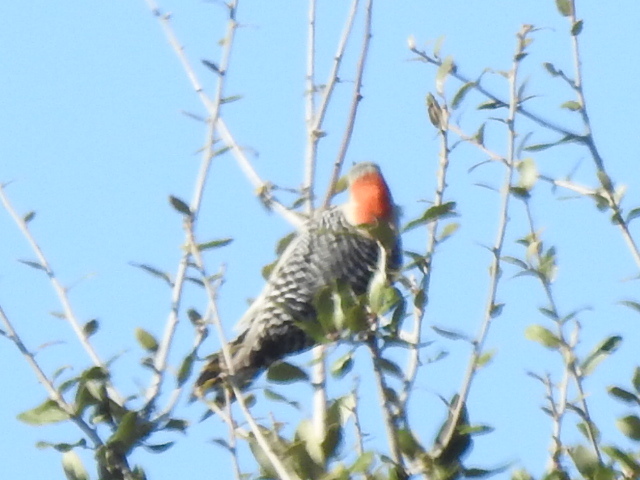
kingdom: Animalia
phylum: Chordata
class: Aves
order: Piciformes
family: Picidae
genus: Melanerpes
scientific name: Melanerpes carolinus
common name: Red-bellied woodpecker
